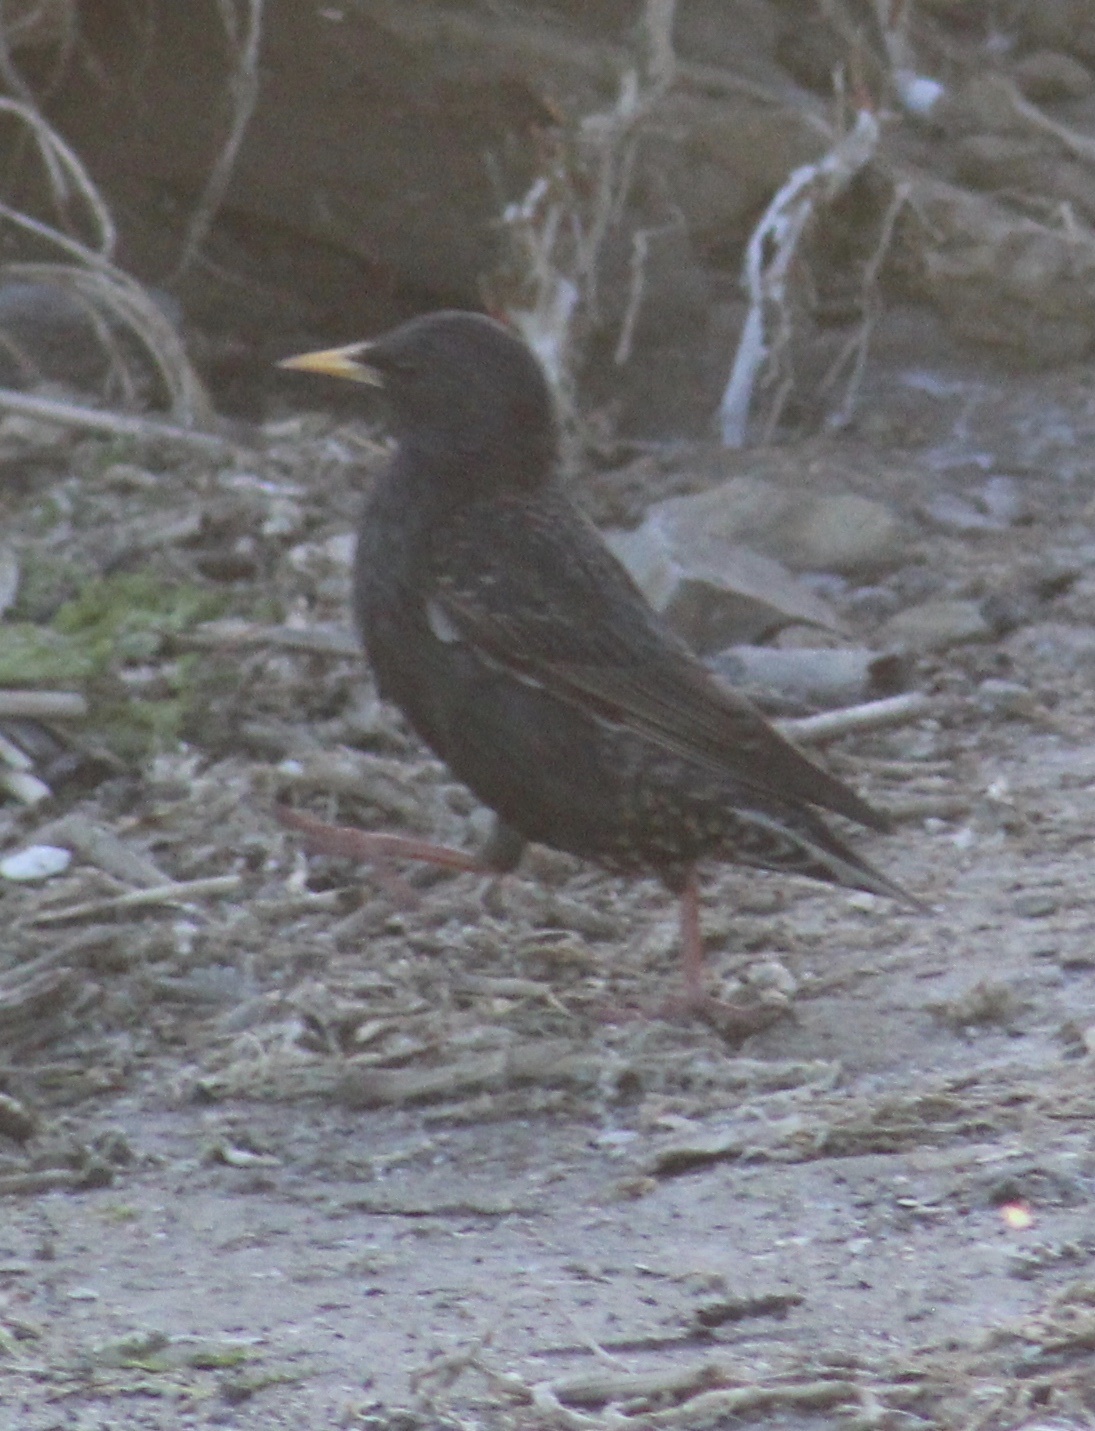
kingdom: Animalia
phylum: Chordata
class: Aves
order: Passeriformes
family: Sturnidae
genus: Sturnus
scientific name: Sturnus vulgaris
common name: Common starling
